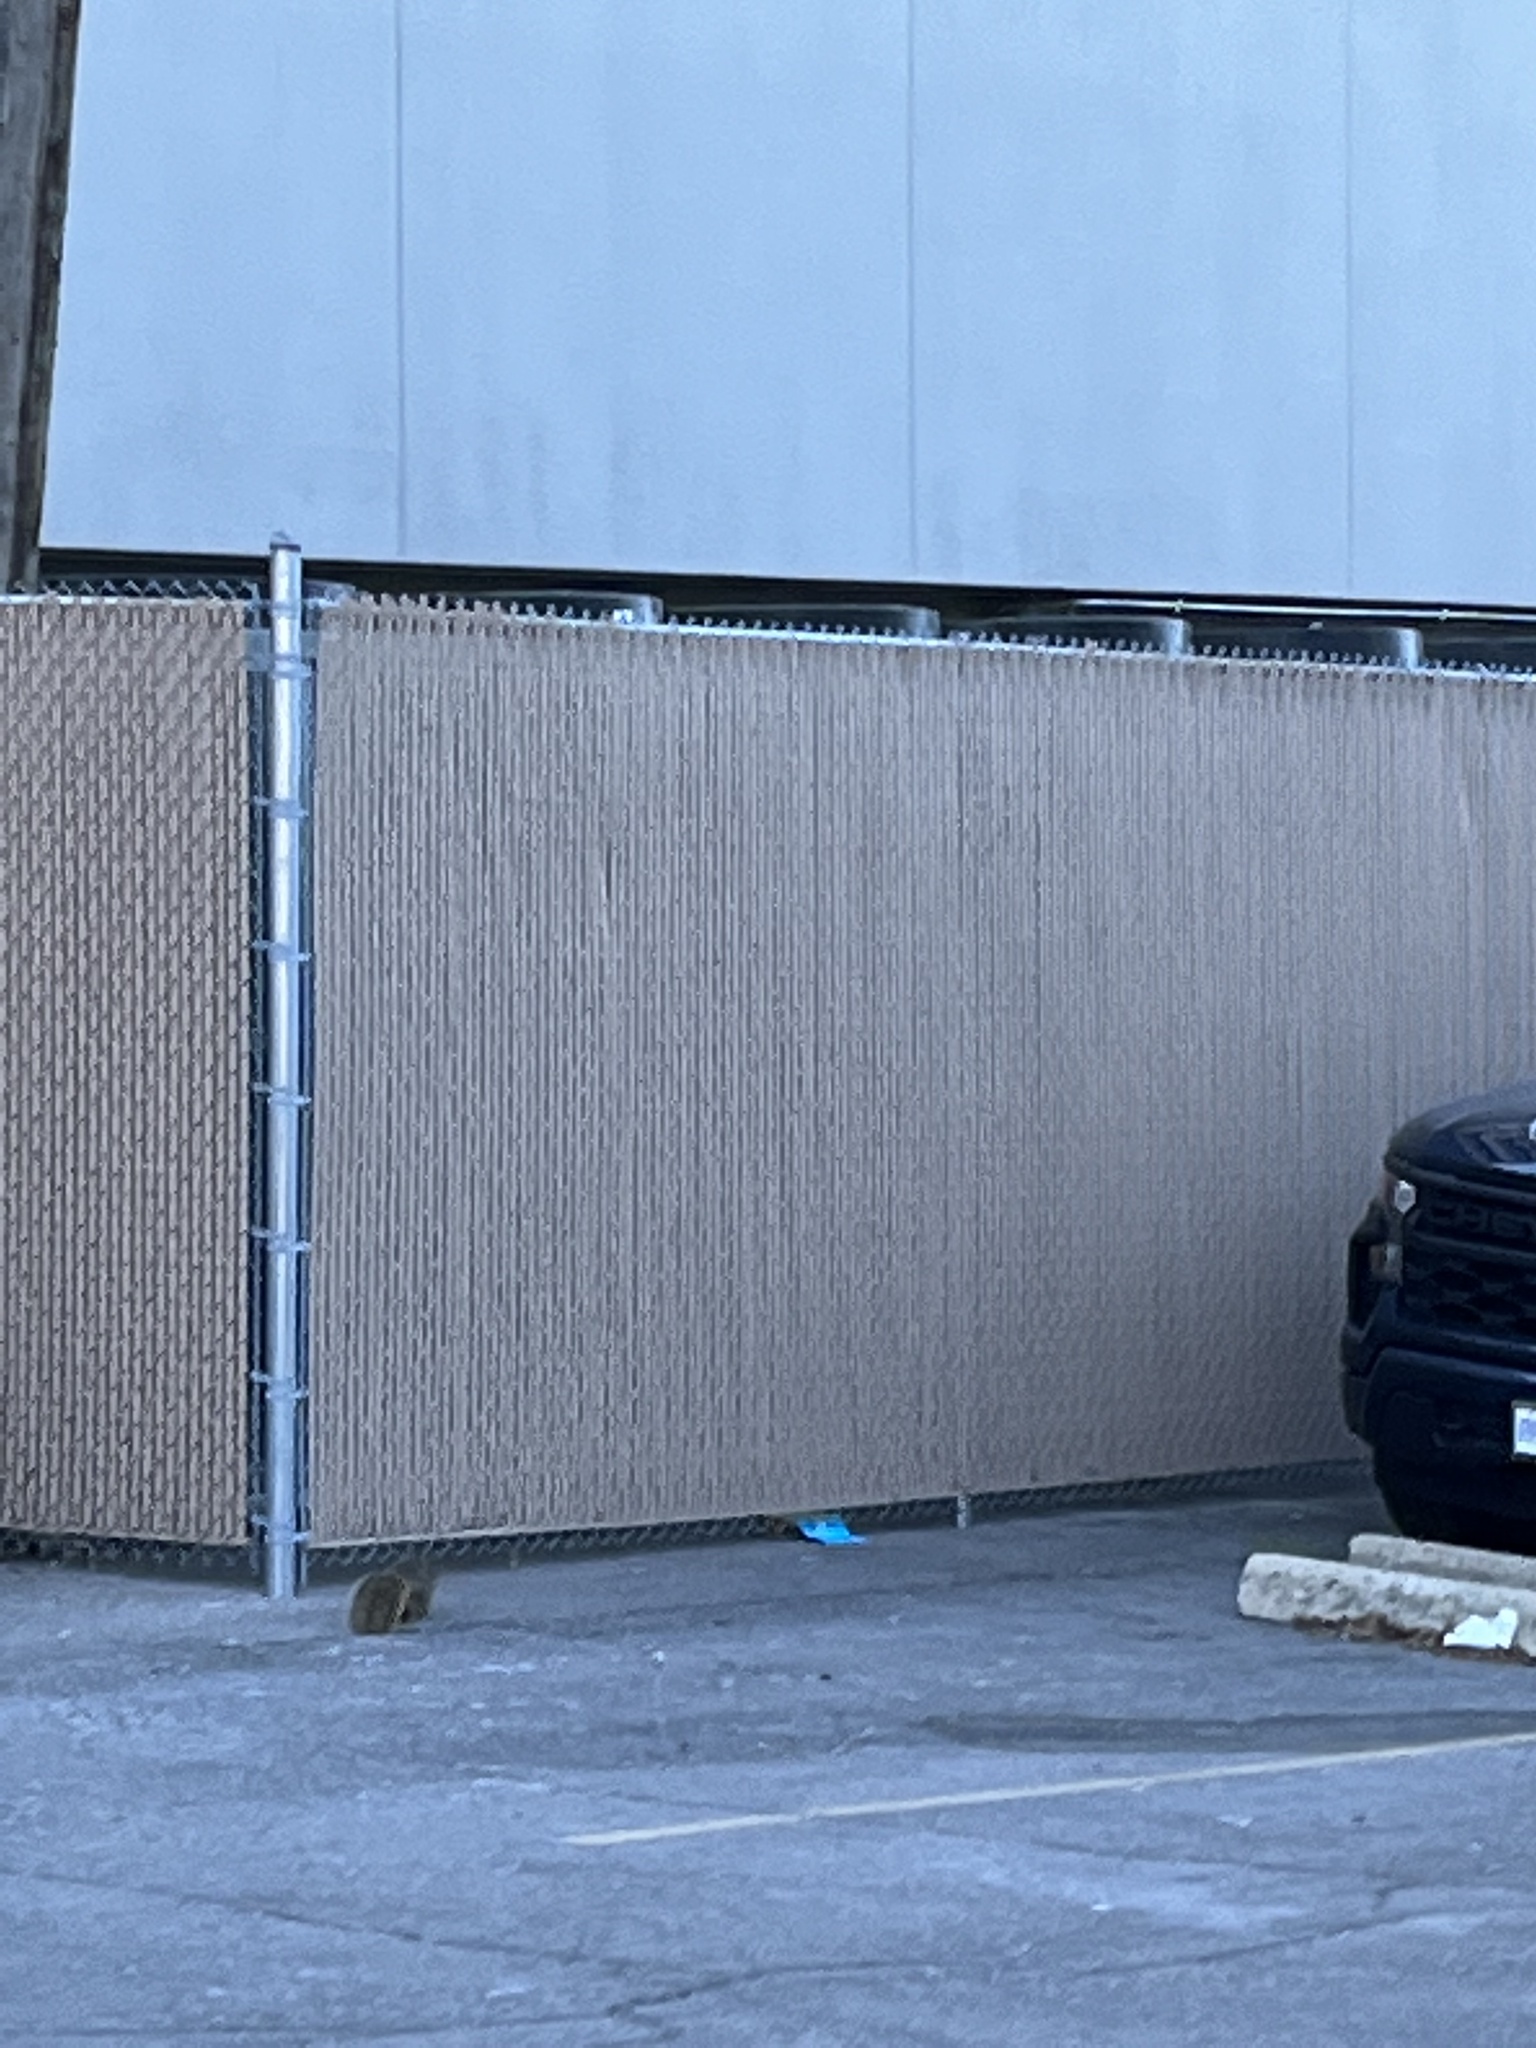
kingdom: Animalia
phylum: Chordata
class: Mammalia
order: Rodentia
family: Sciuridae
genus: Sciurus
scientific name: Sciurus niger
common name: Fox squirrel
